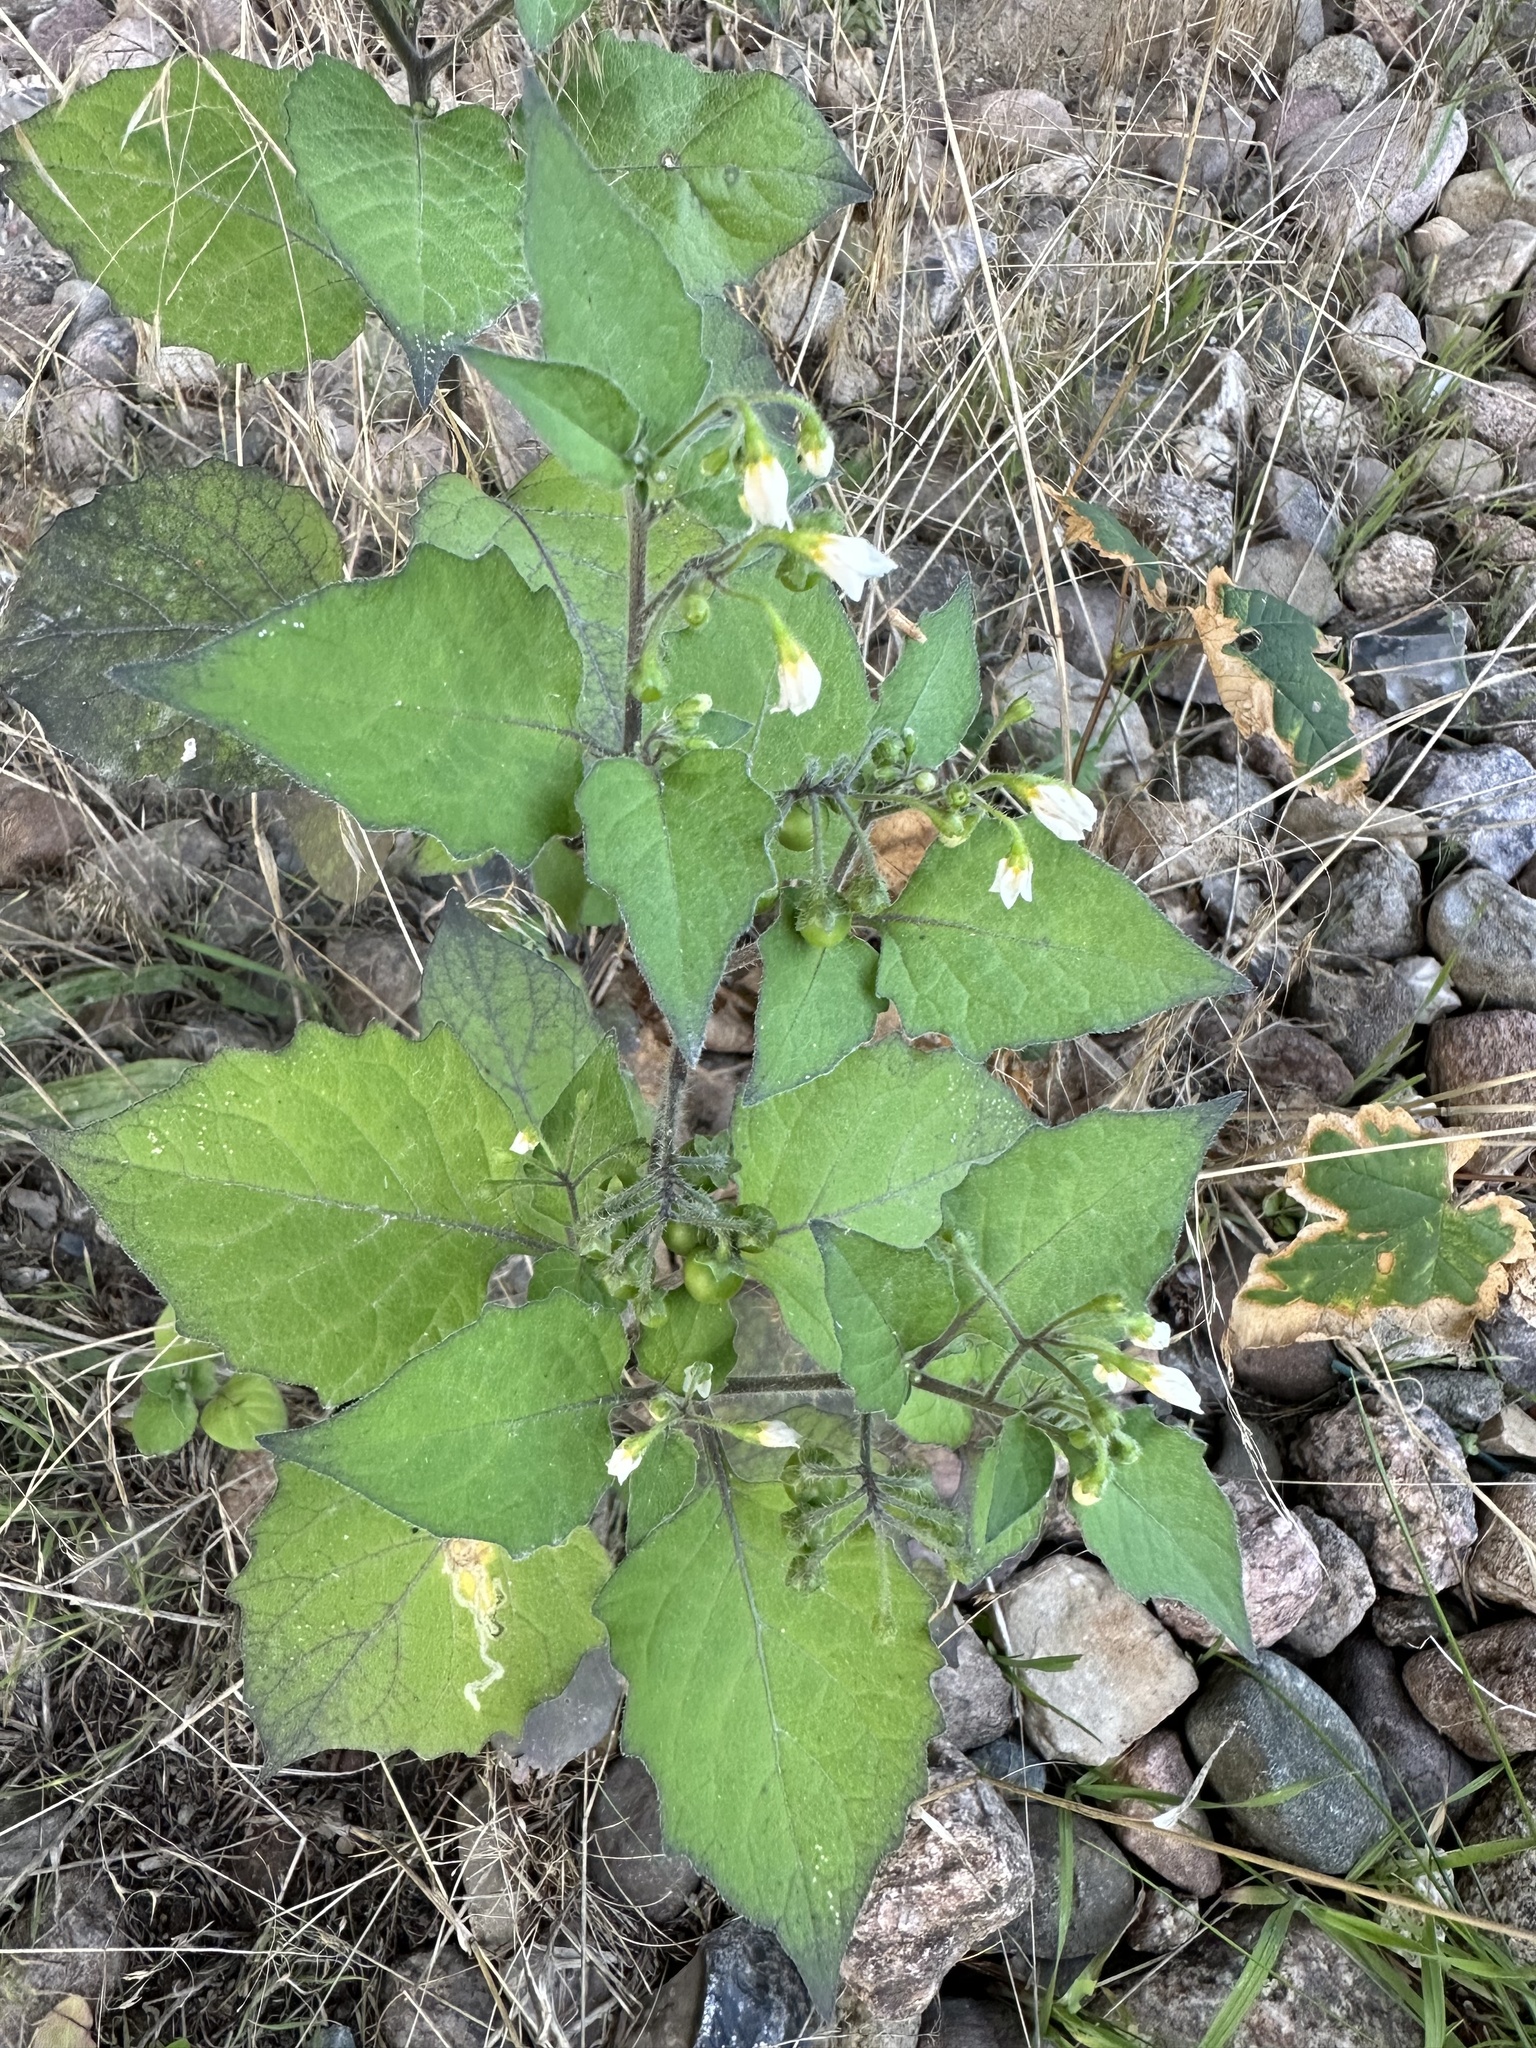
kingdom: Plantae
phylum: Tracheophyta
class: Magnoliopsida
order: Solanales
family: Solanaceae
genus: Solanum
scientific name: Solanum nigrum
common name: Black nightshade
